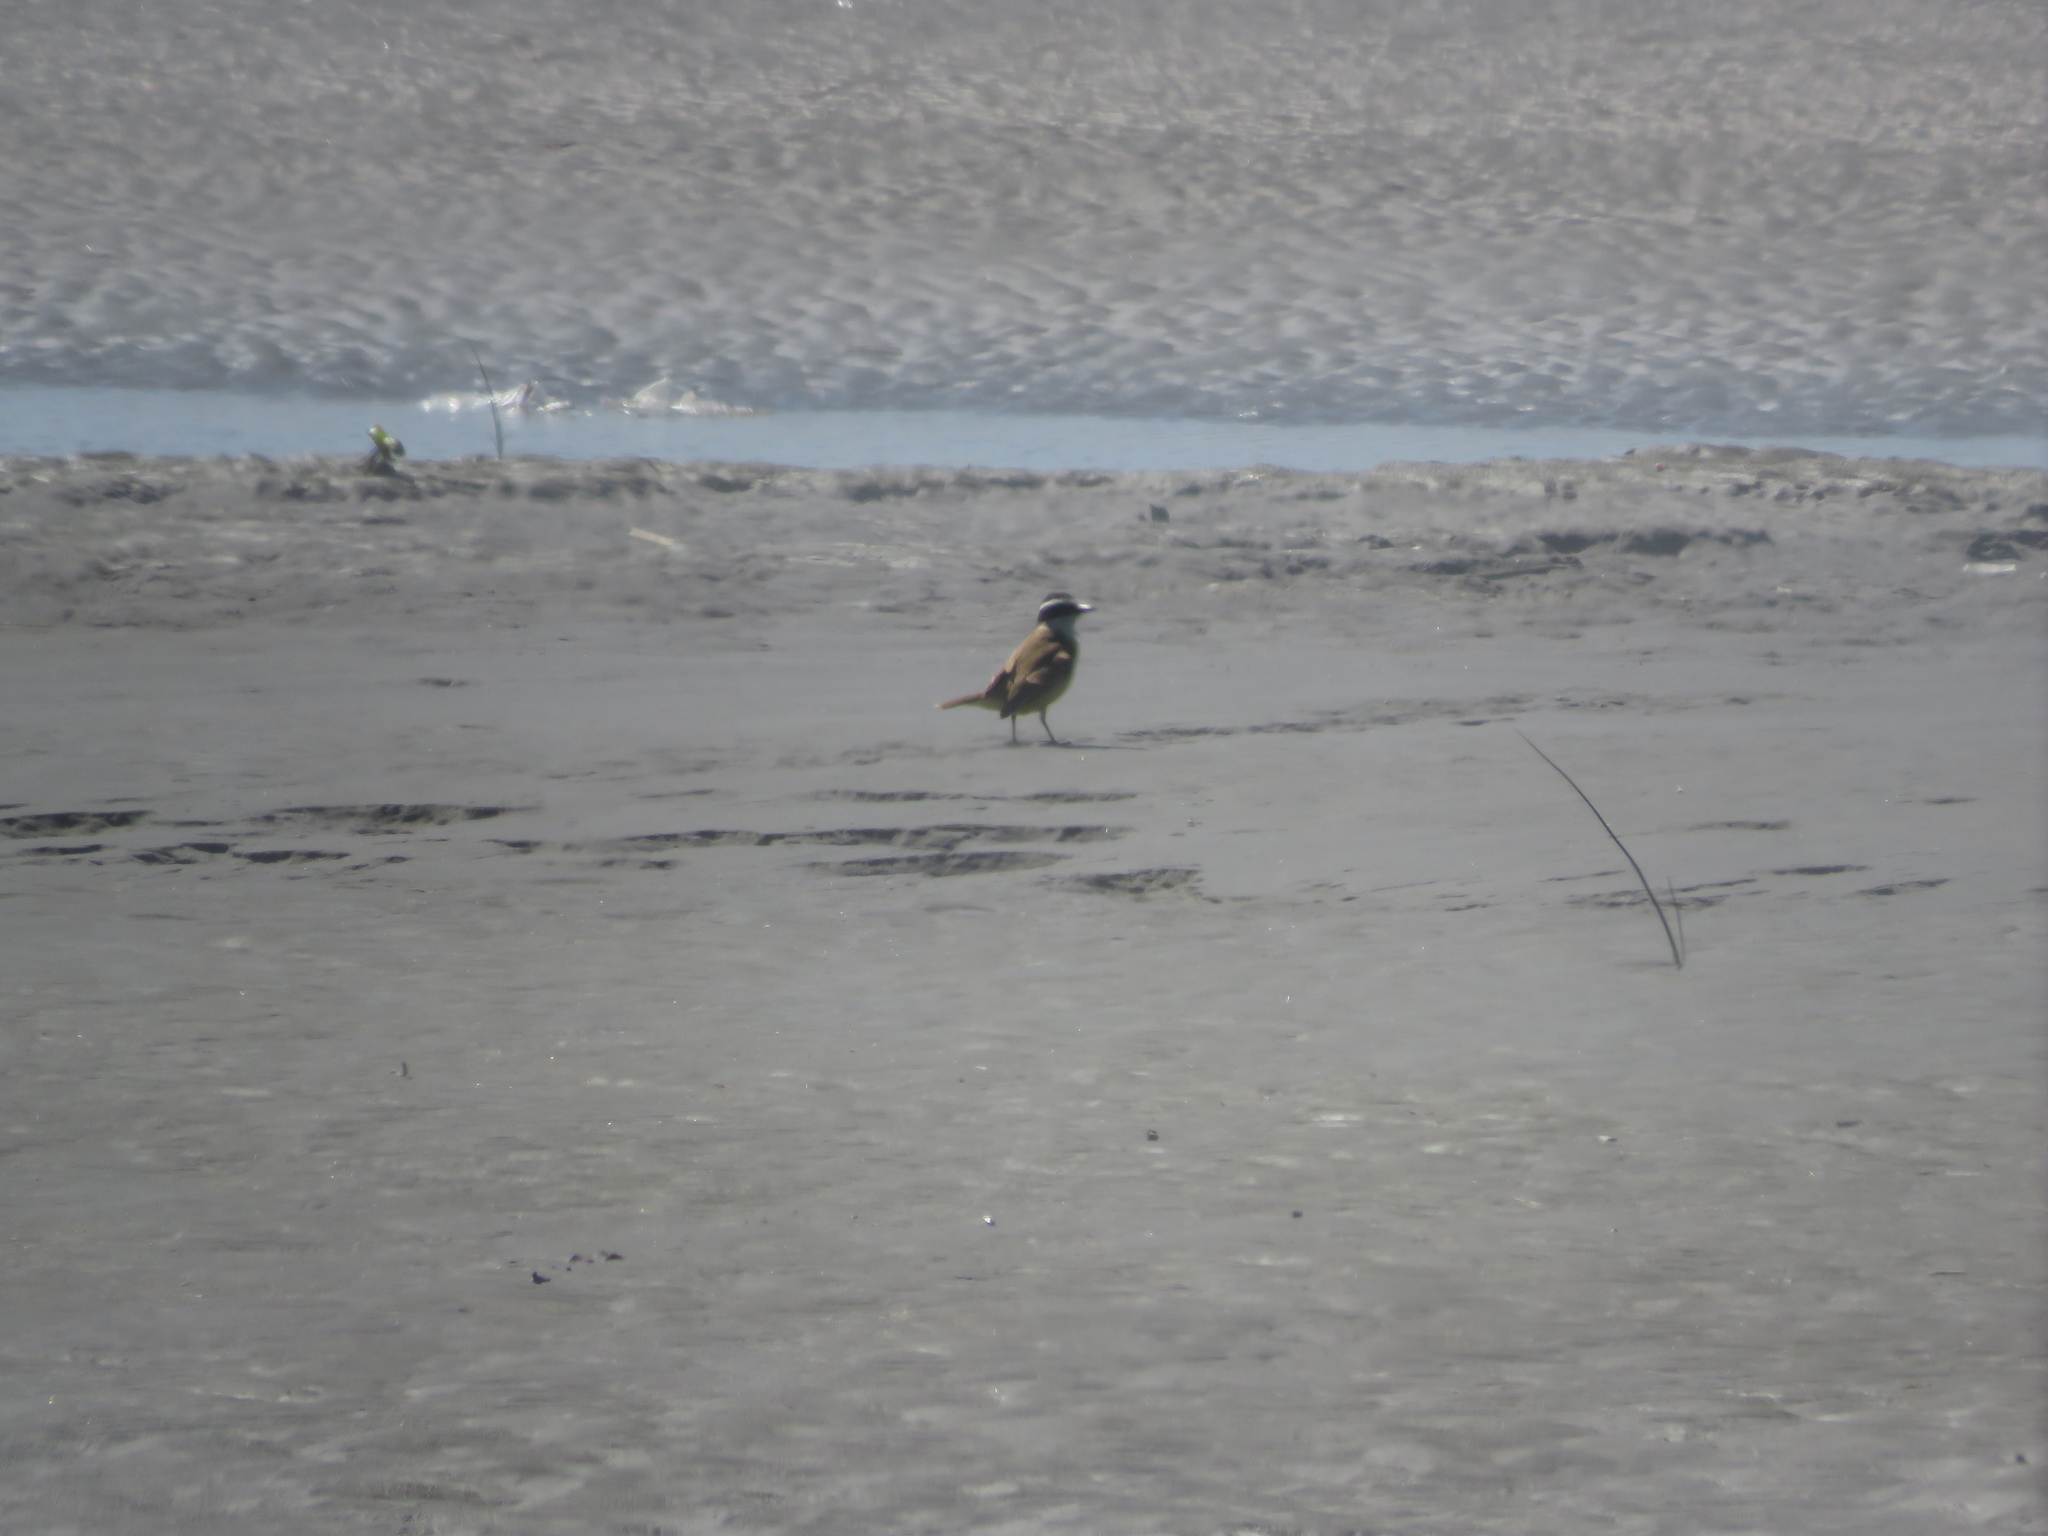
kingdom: Animalia
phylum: Chordata
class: Aves
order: Passeriformes
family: Tyrannidae
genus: Pitangus
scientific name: Pitangus sulphuratus
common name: Great kiskadee
